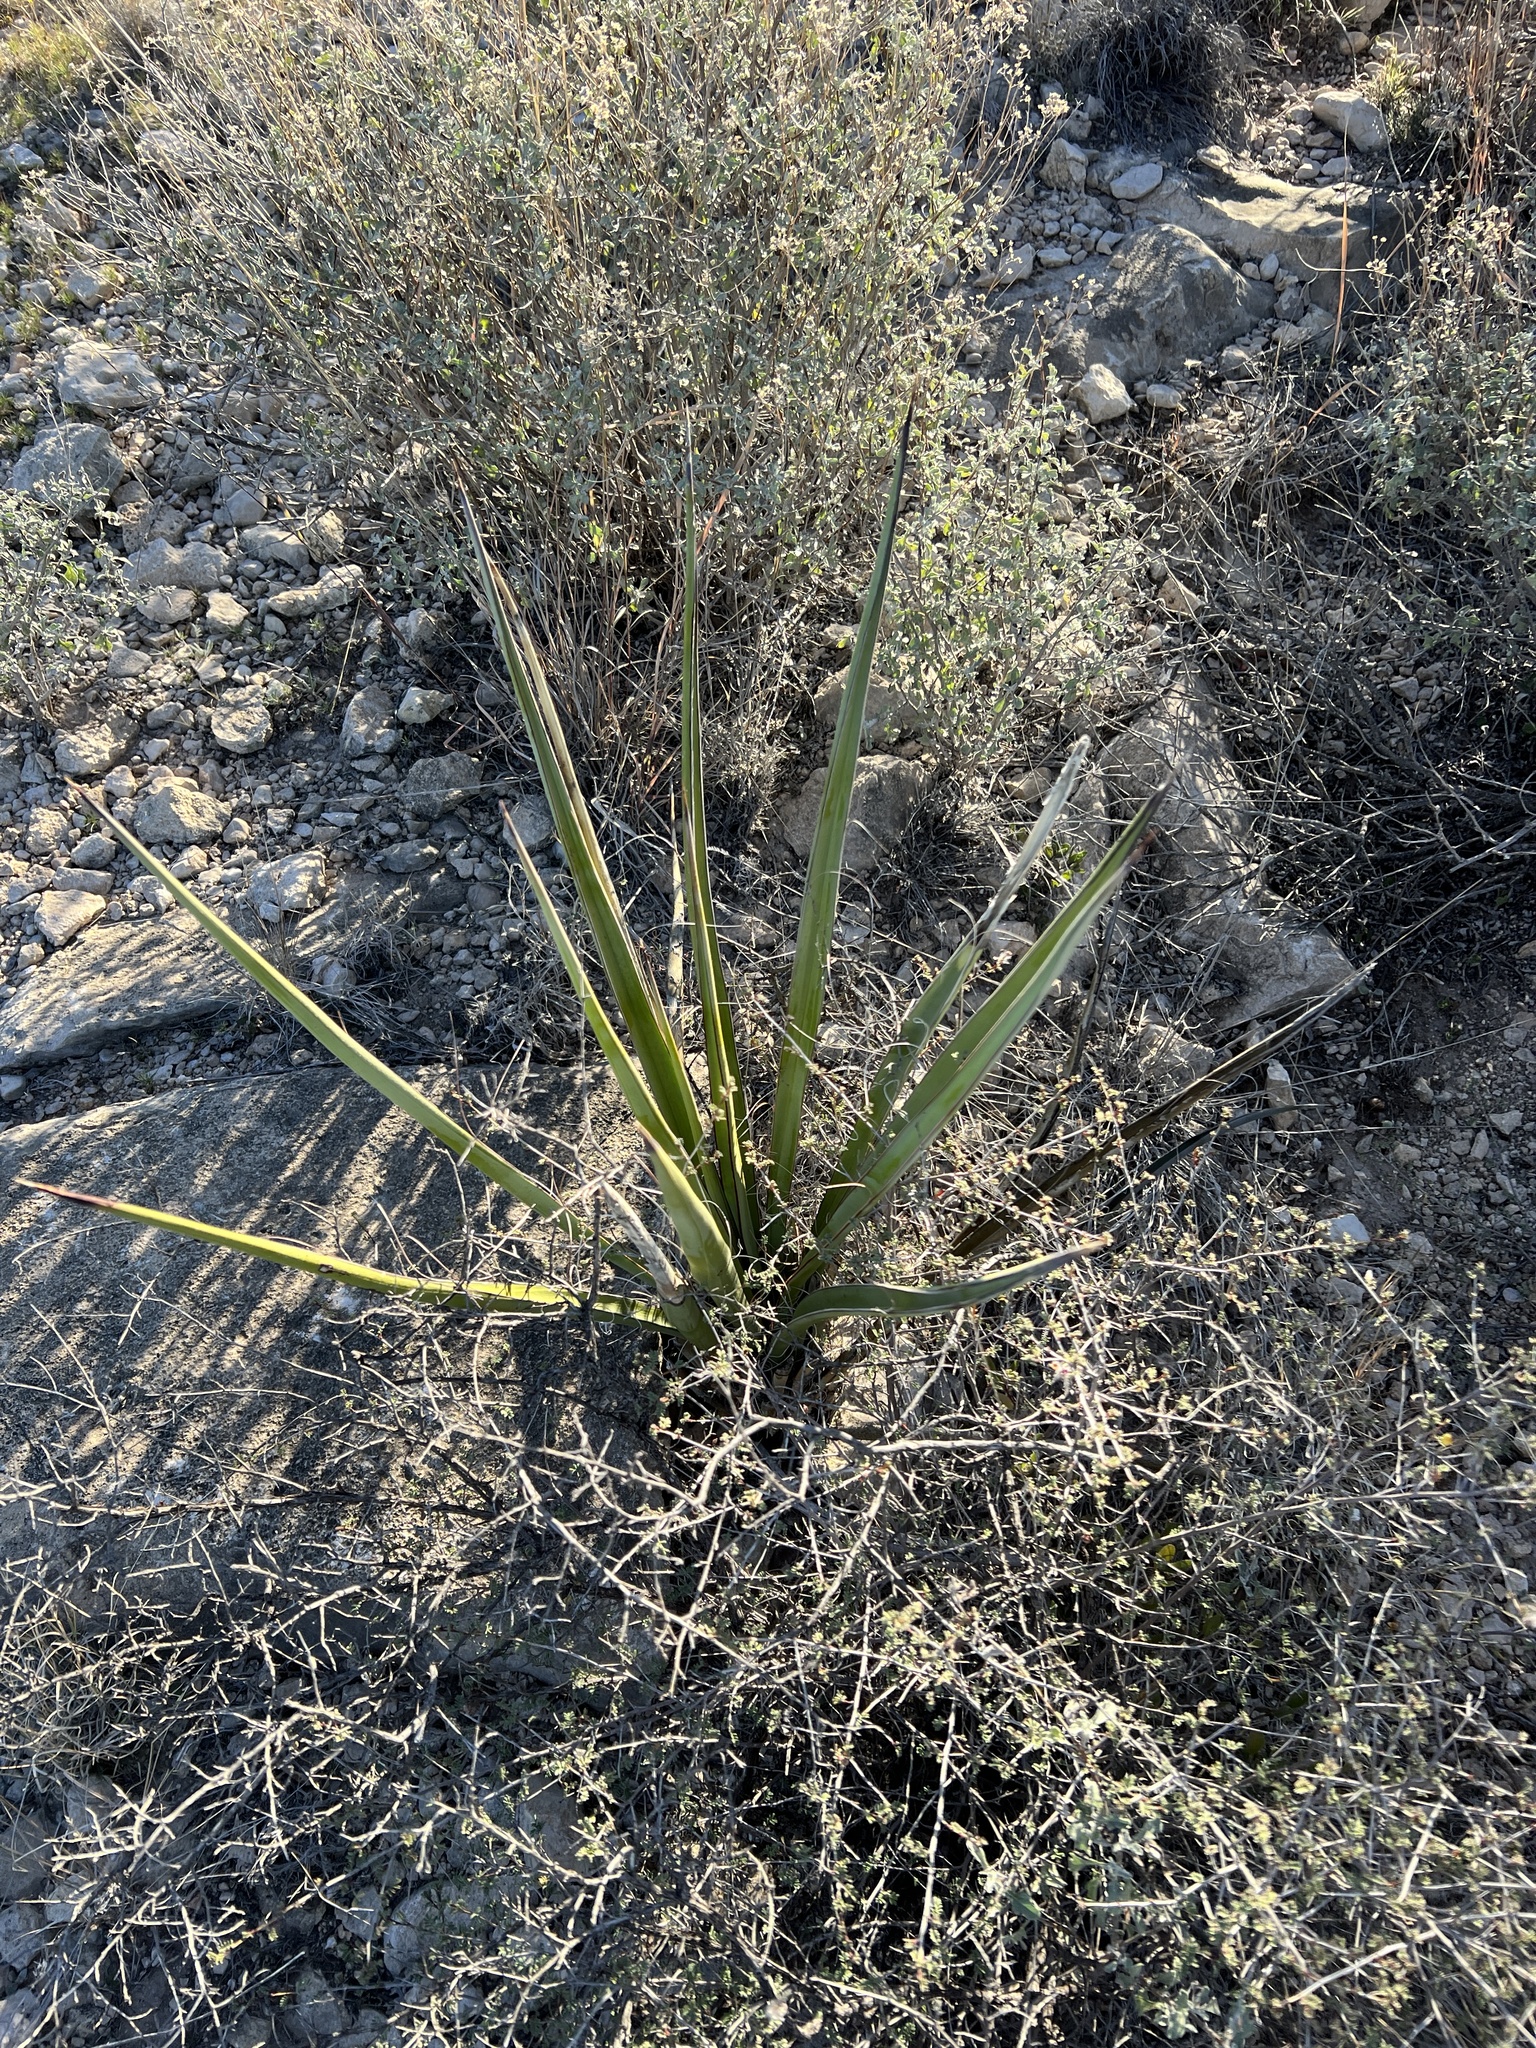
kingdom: Plantae
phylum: Tracheophyta
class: Liliopsida
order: Asparagales
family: Asparagaceae
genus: Yucca
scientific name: Yucca treculiana
